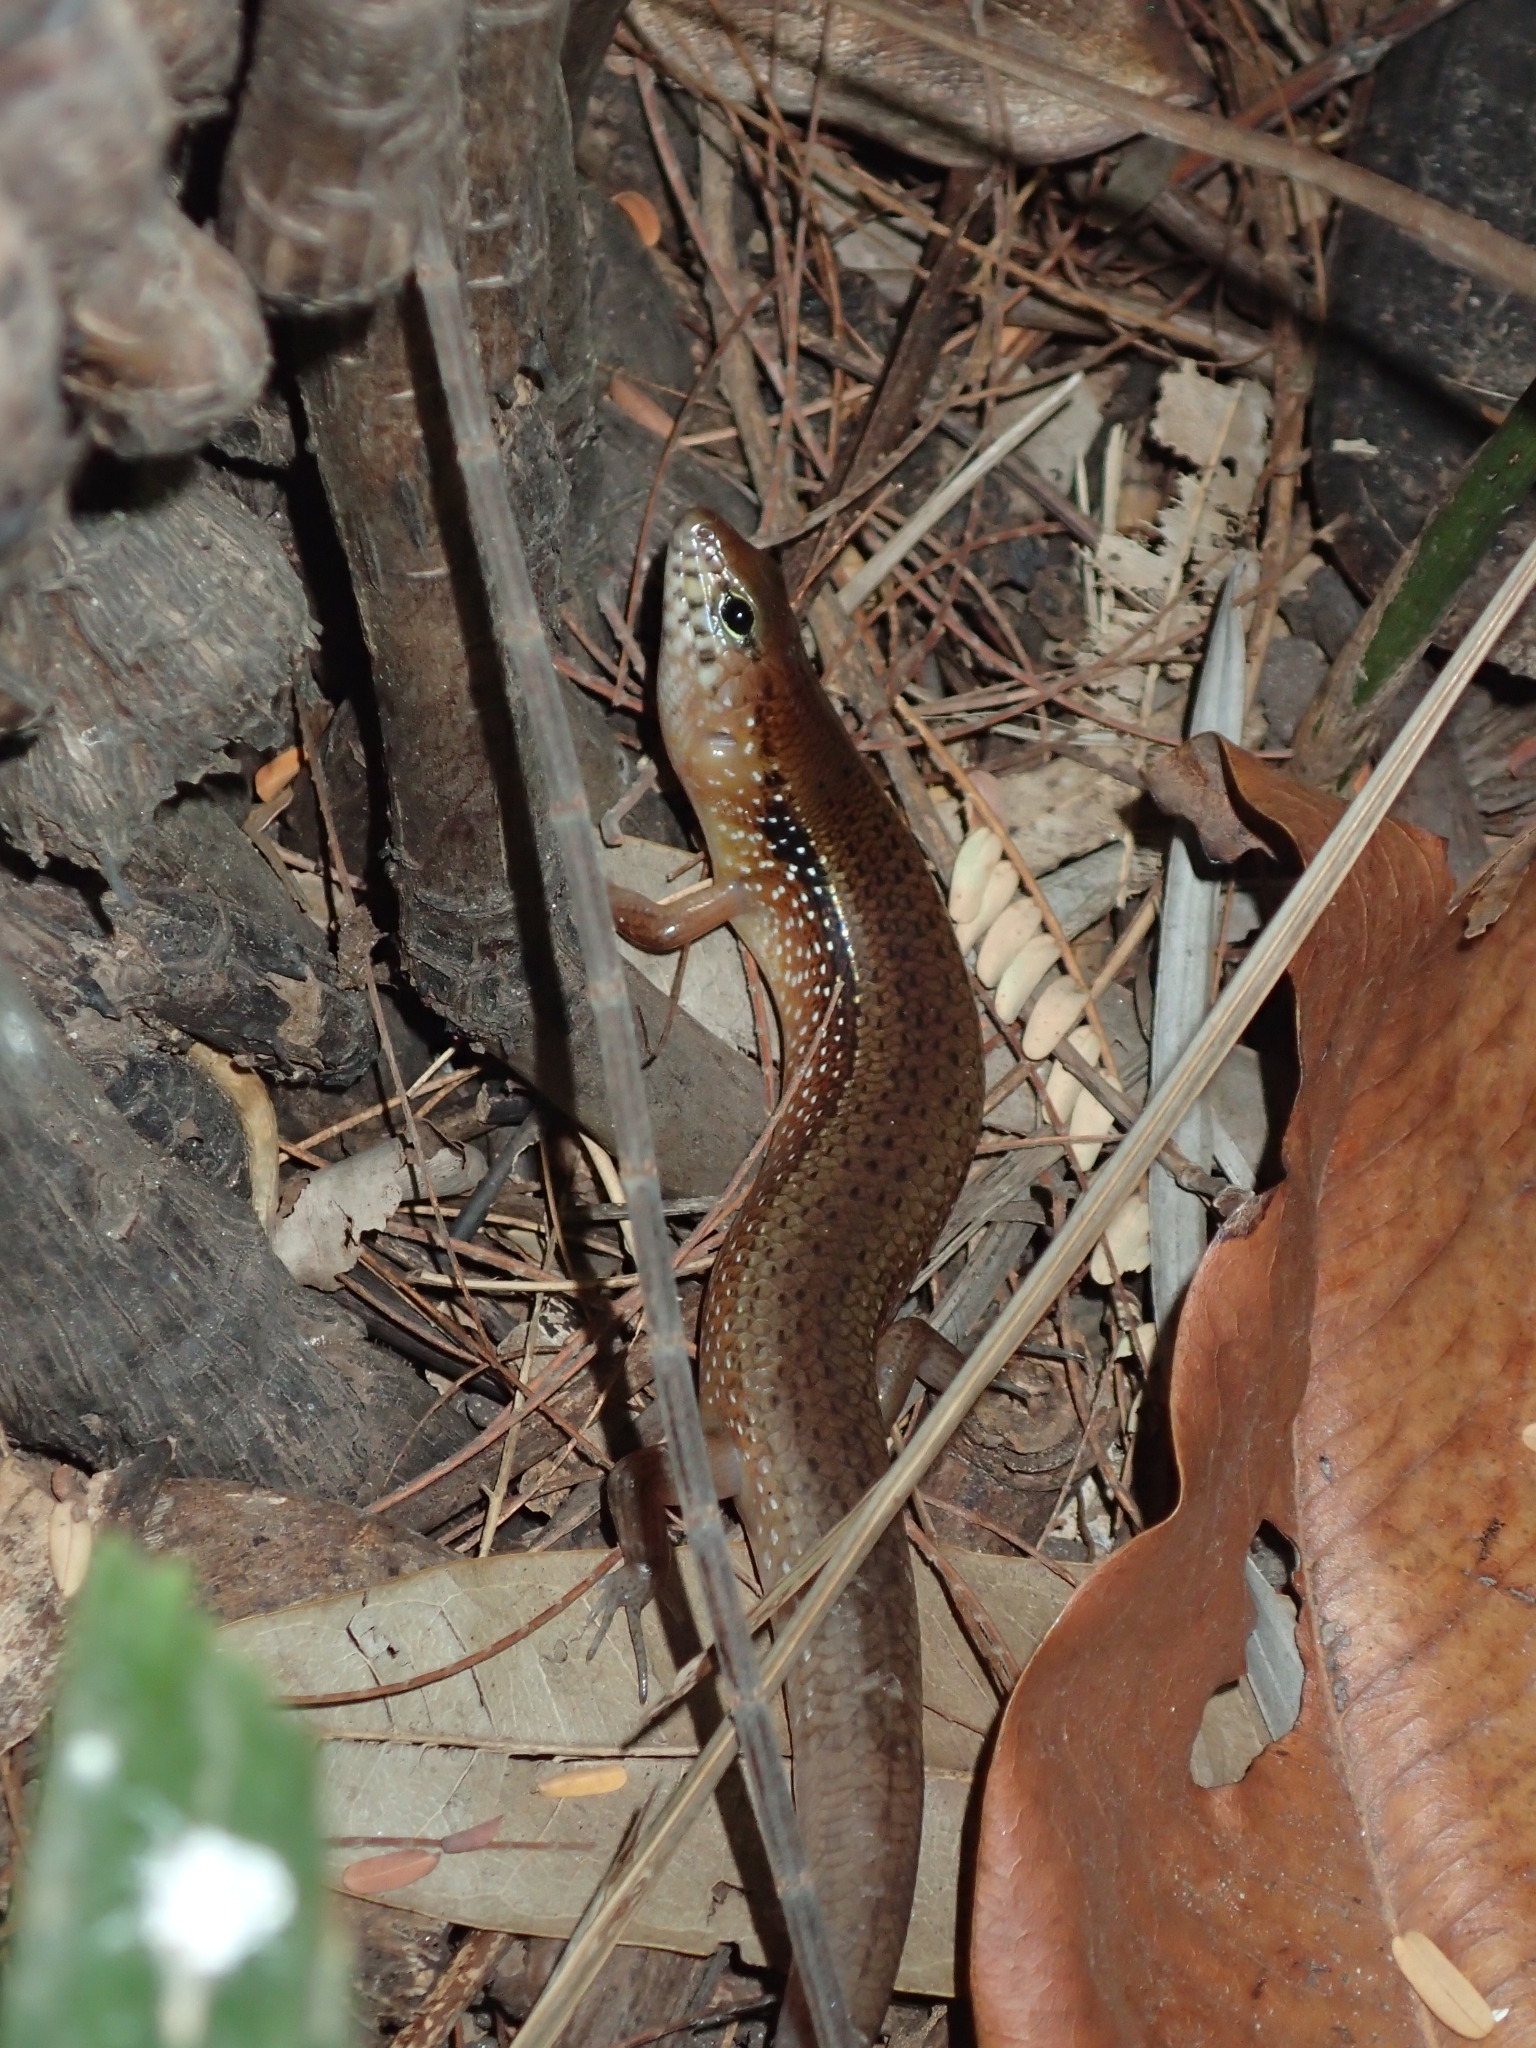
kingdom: Animalia
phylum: Chordata
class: Squamata
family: Scincidae
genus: Eremiascincus
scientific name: Eremiascincus douglasi
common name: Orange-sided bar-lipped skink
